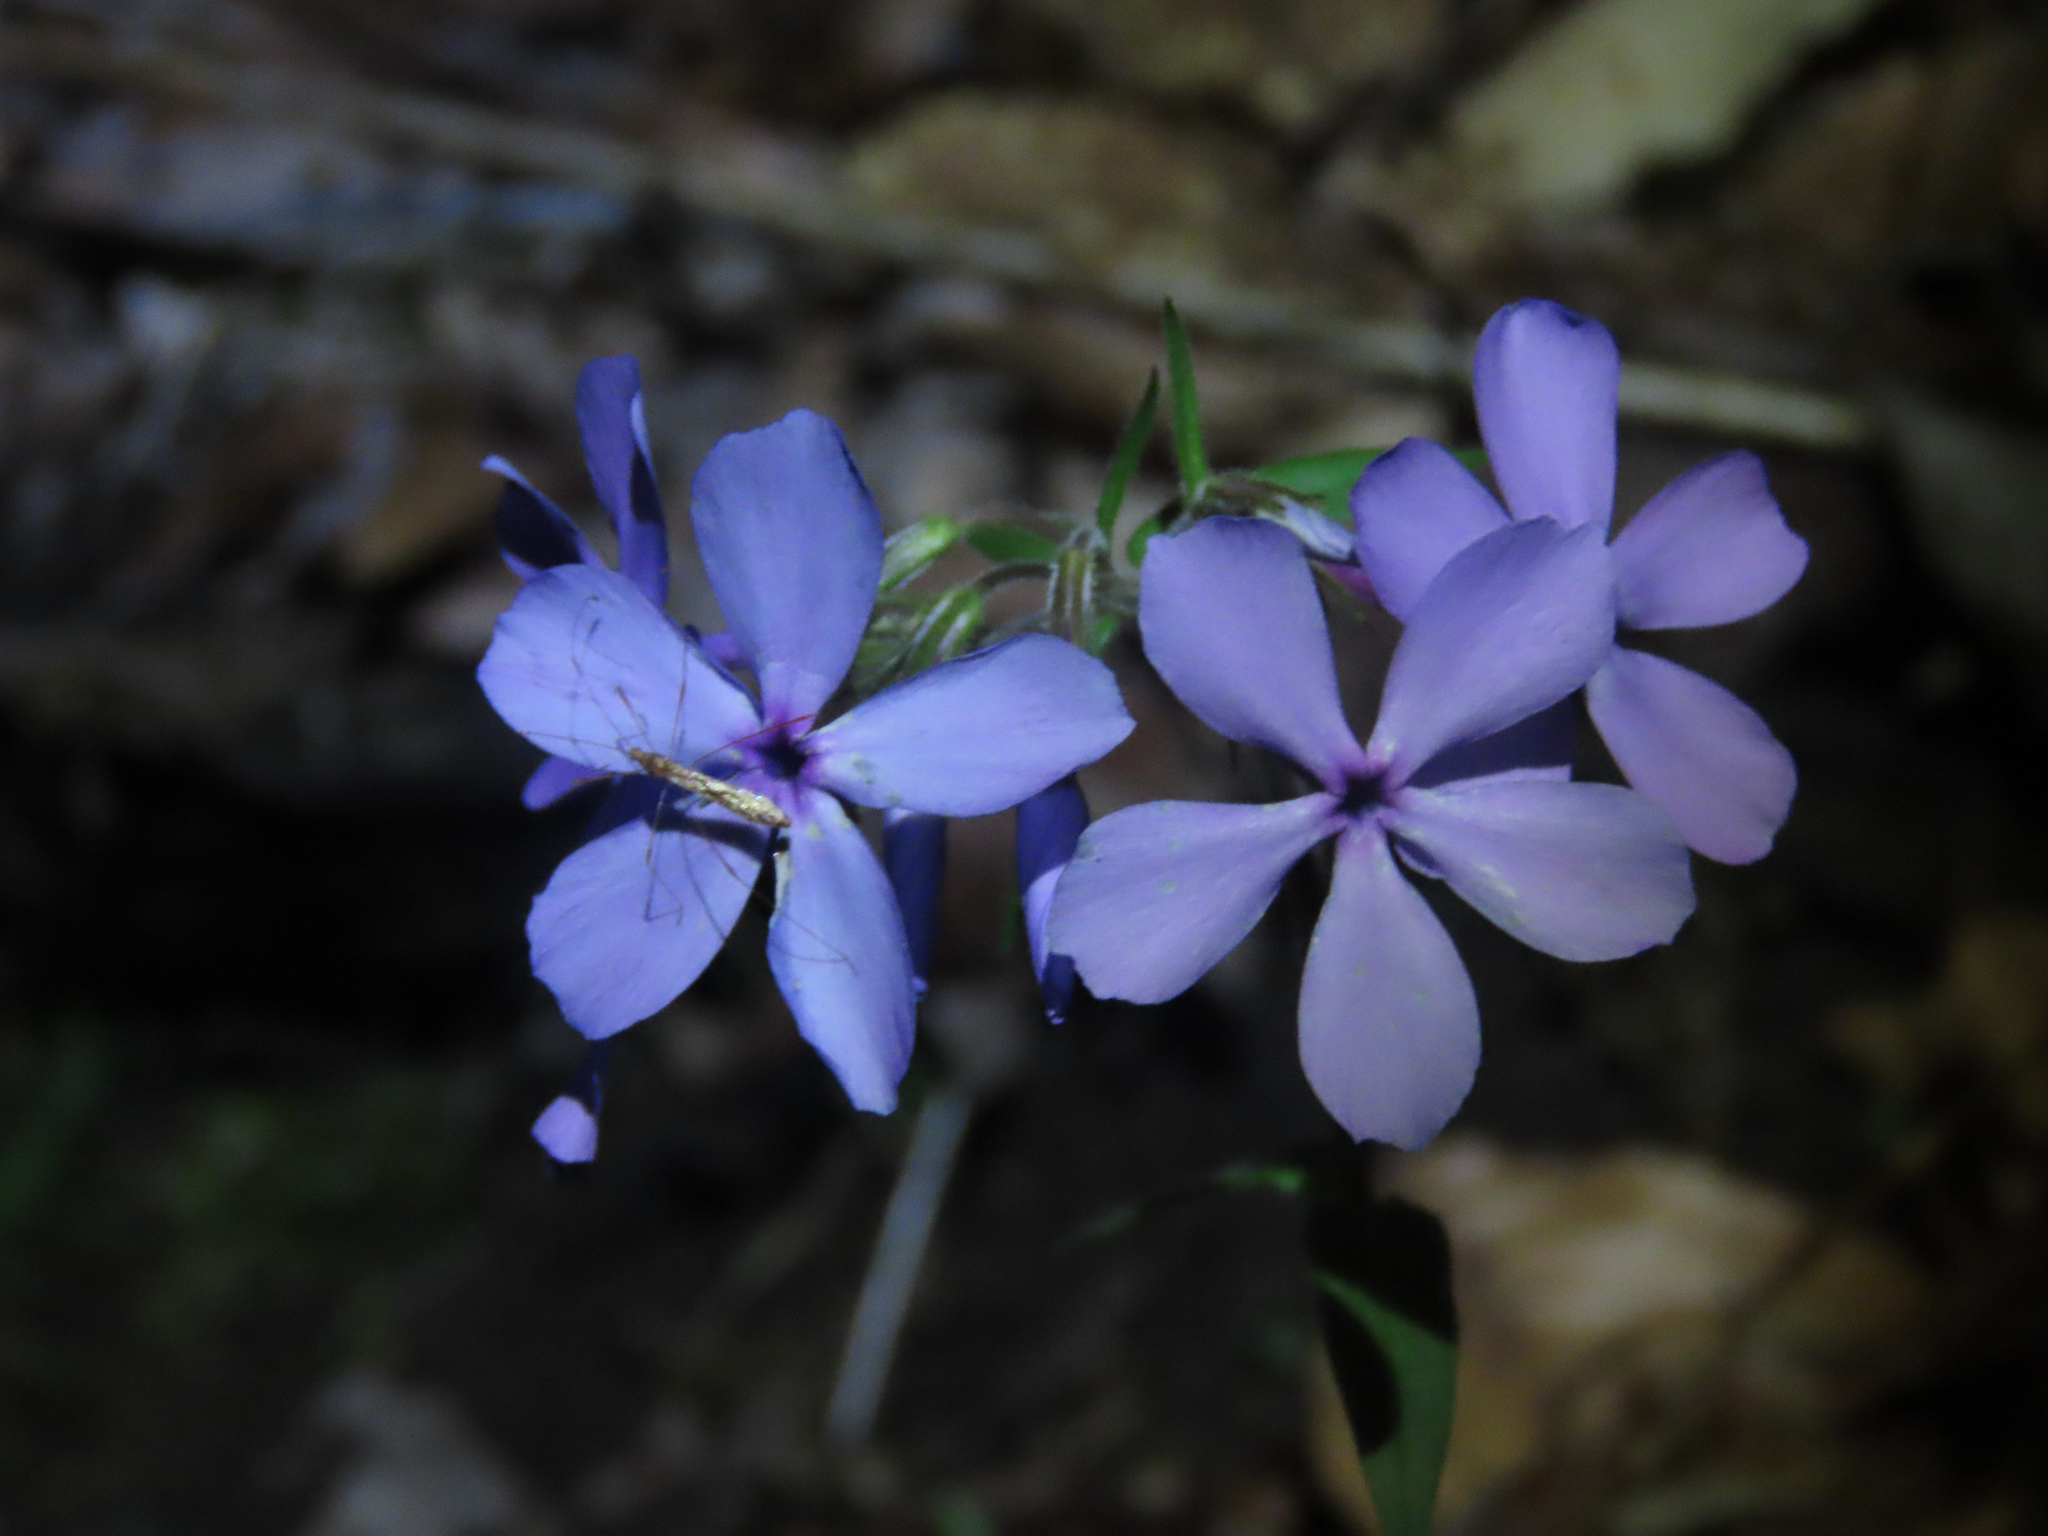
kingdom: Plantae
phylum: Tracheophyta
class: Magnoliopsida
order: Ericales
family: Polemoniaceae
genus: Phlox
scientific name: Phlox divaricata
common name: Blue phlox
